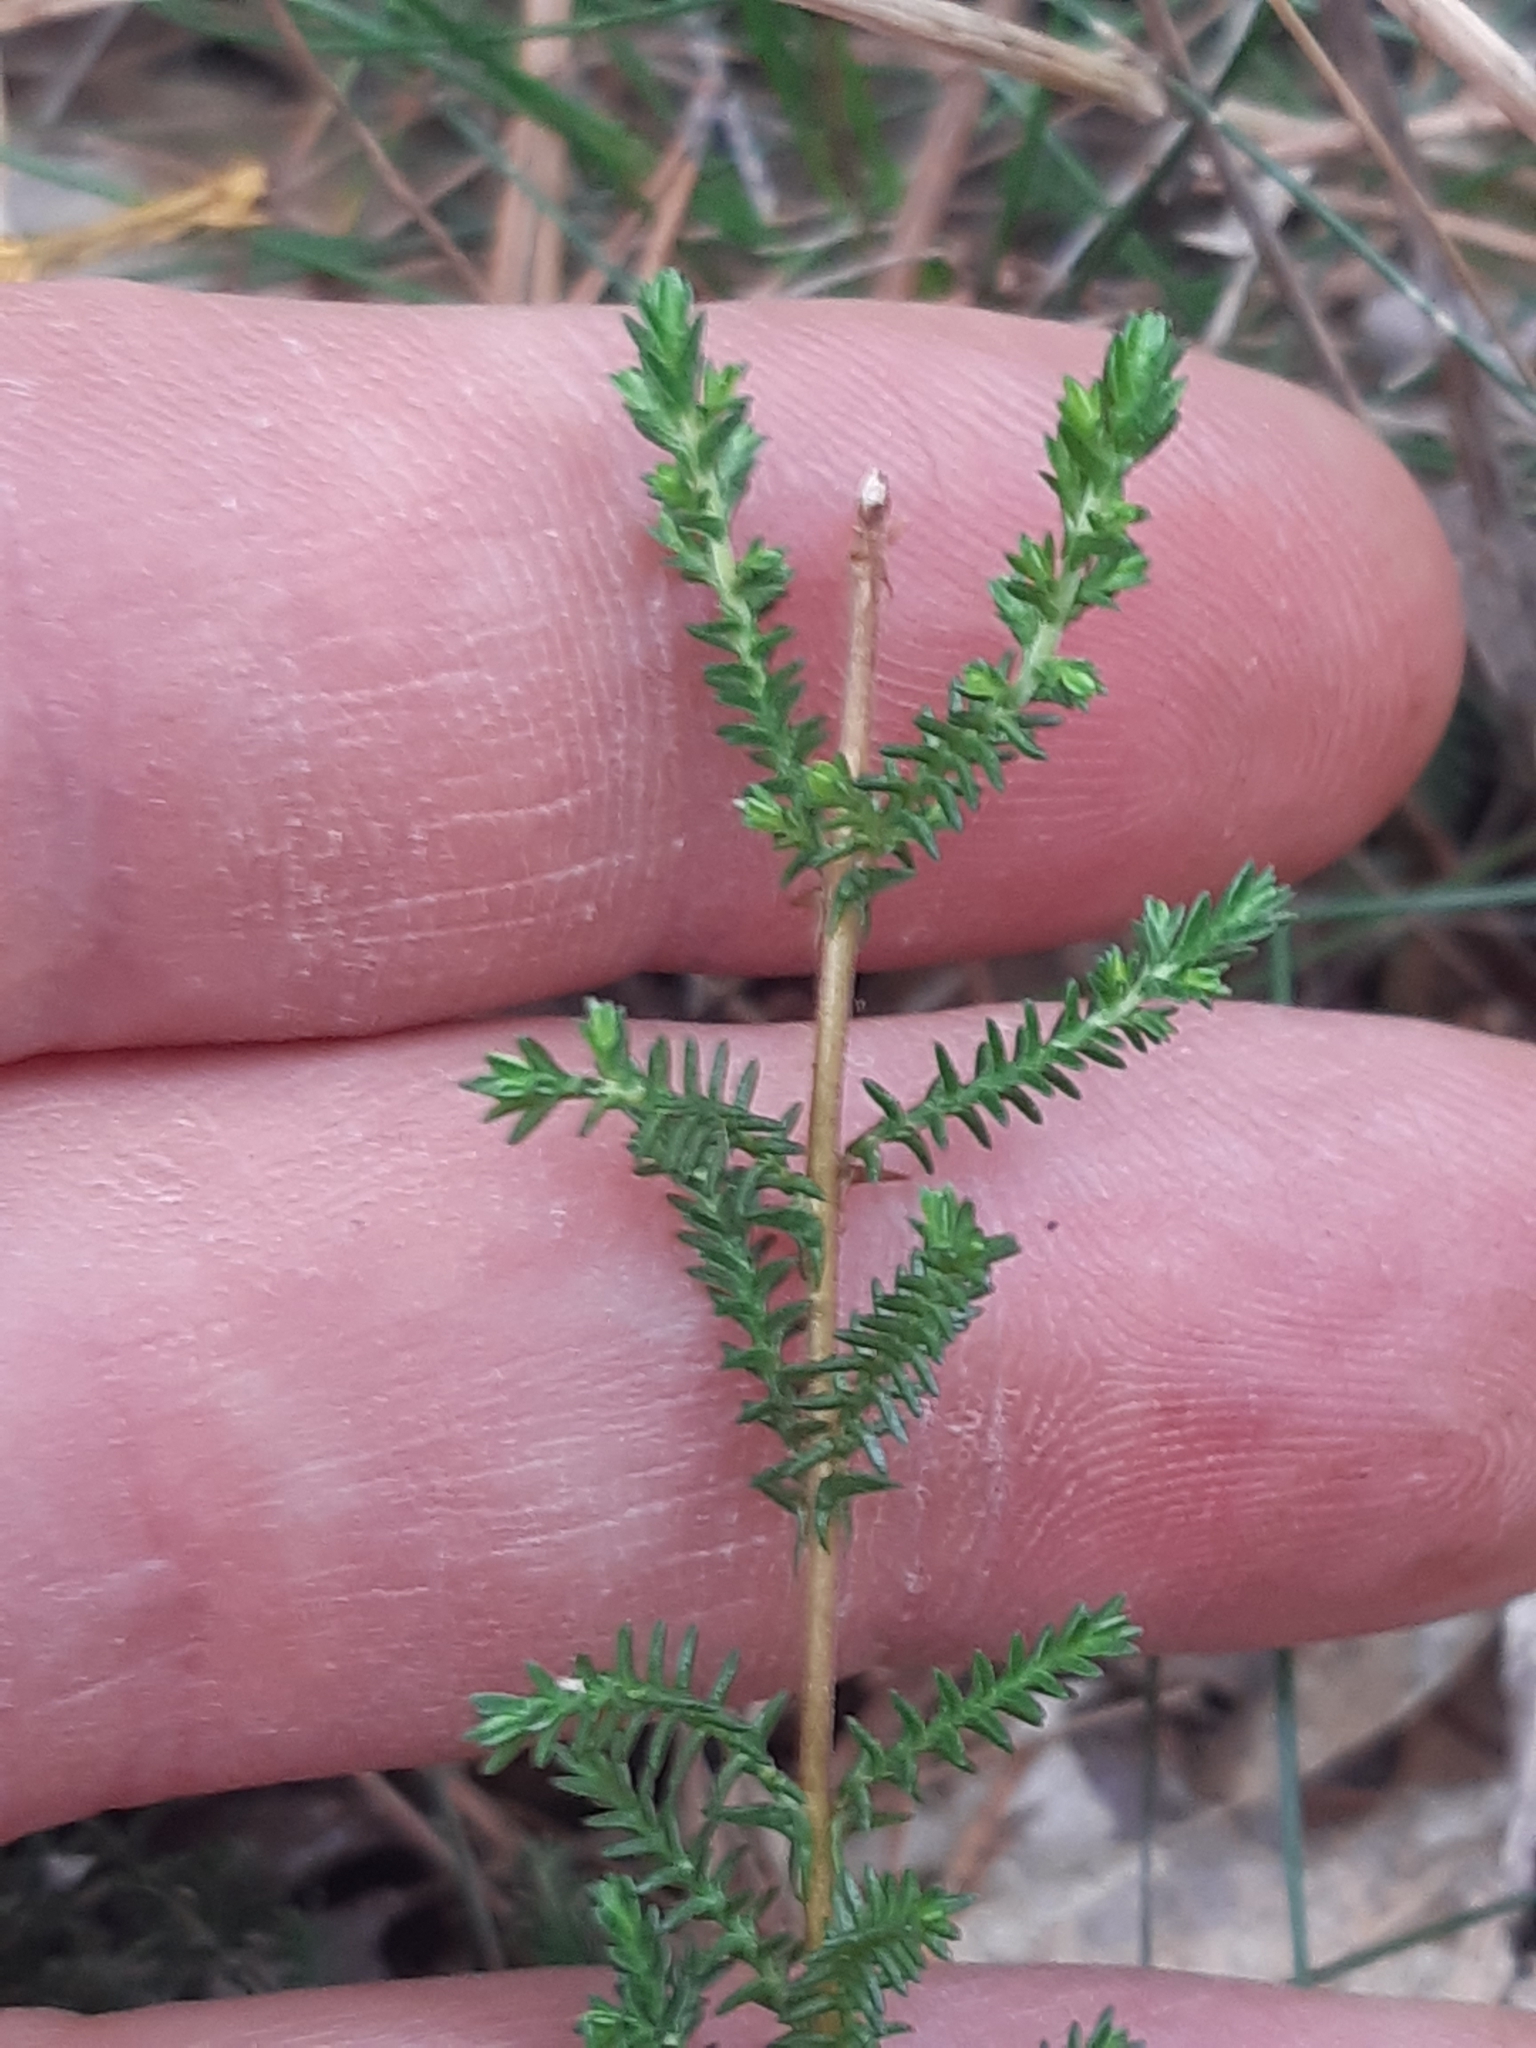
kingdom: Plantae
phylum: Tracheophyta
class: Magnoliopsida
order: Ericales
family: Ericaceae
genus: Calluna
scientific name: Calluna vulgaris
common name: Heather
